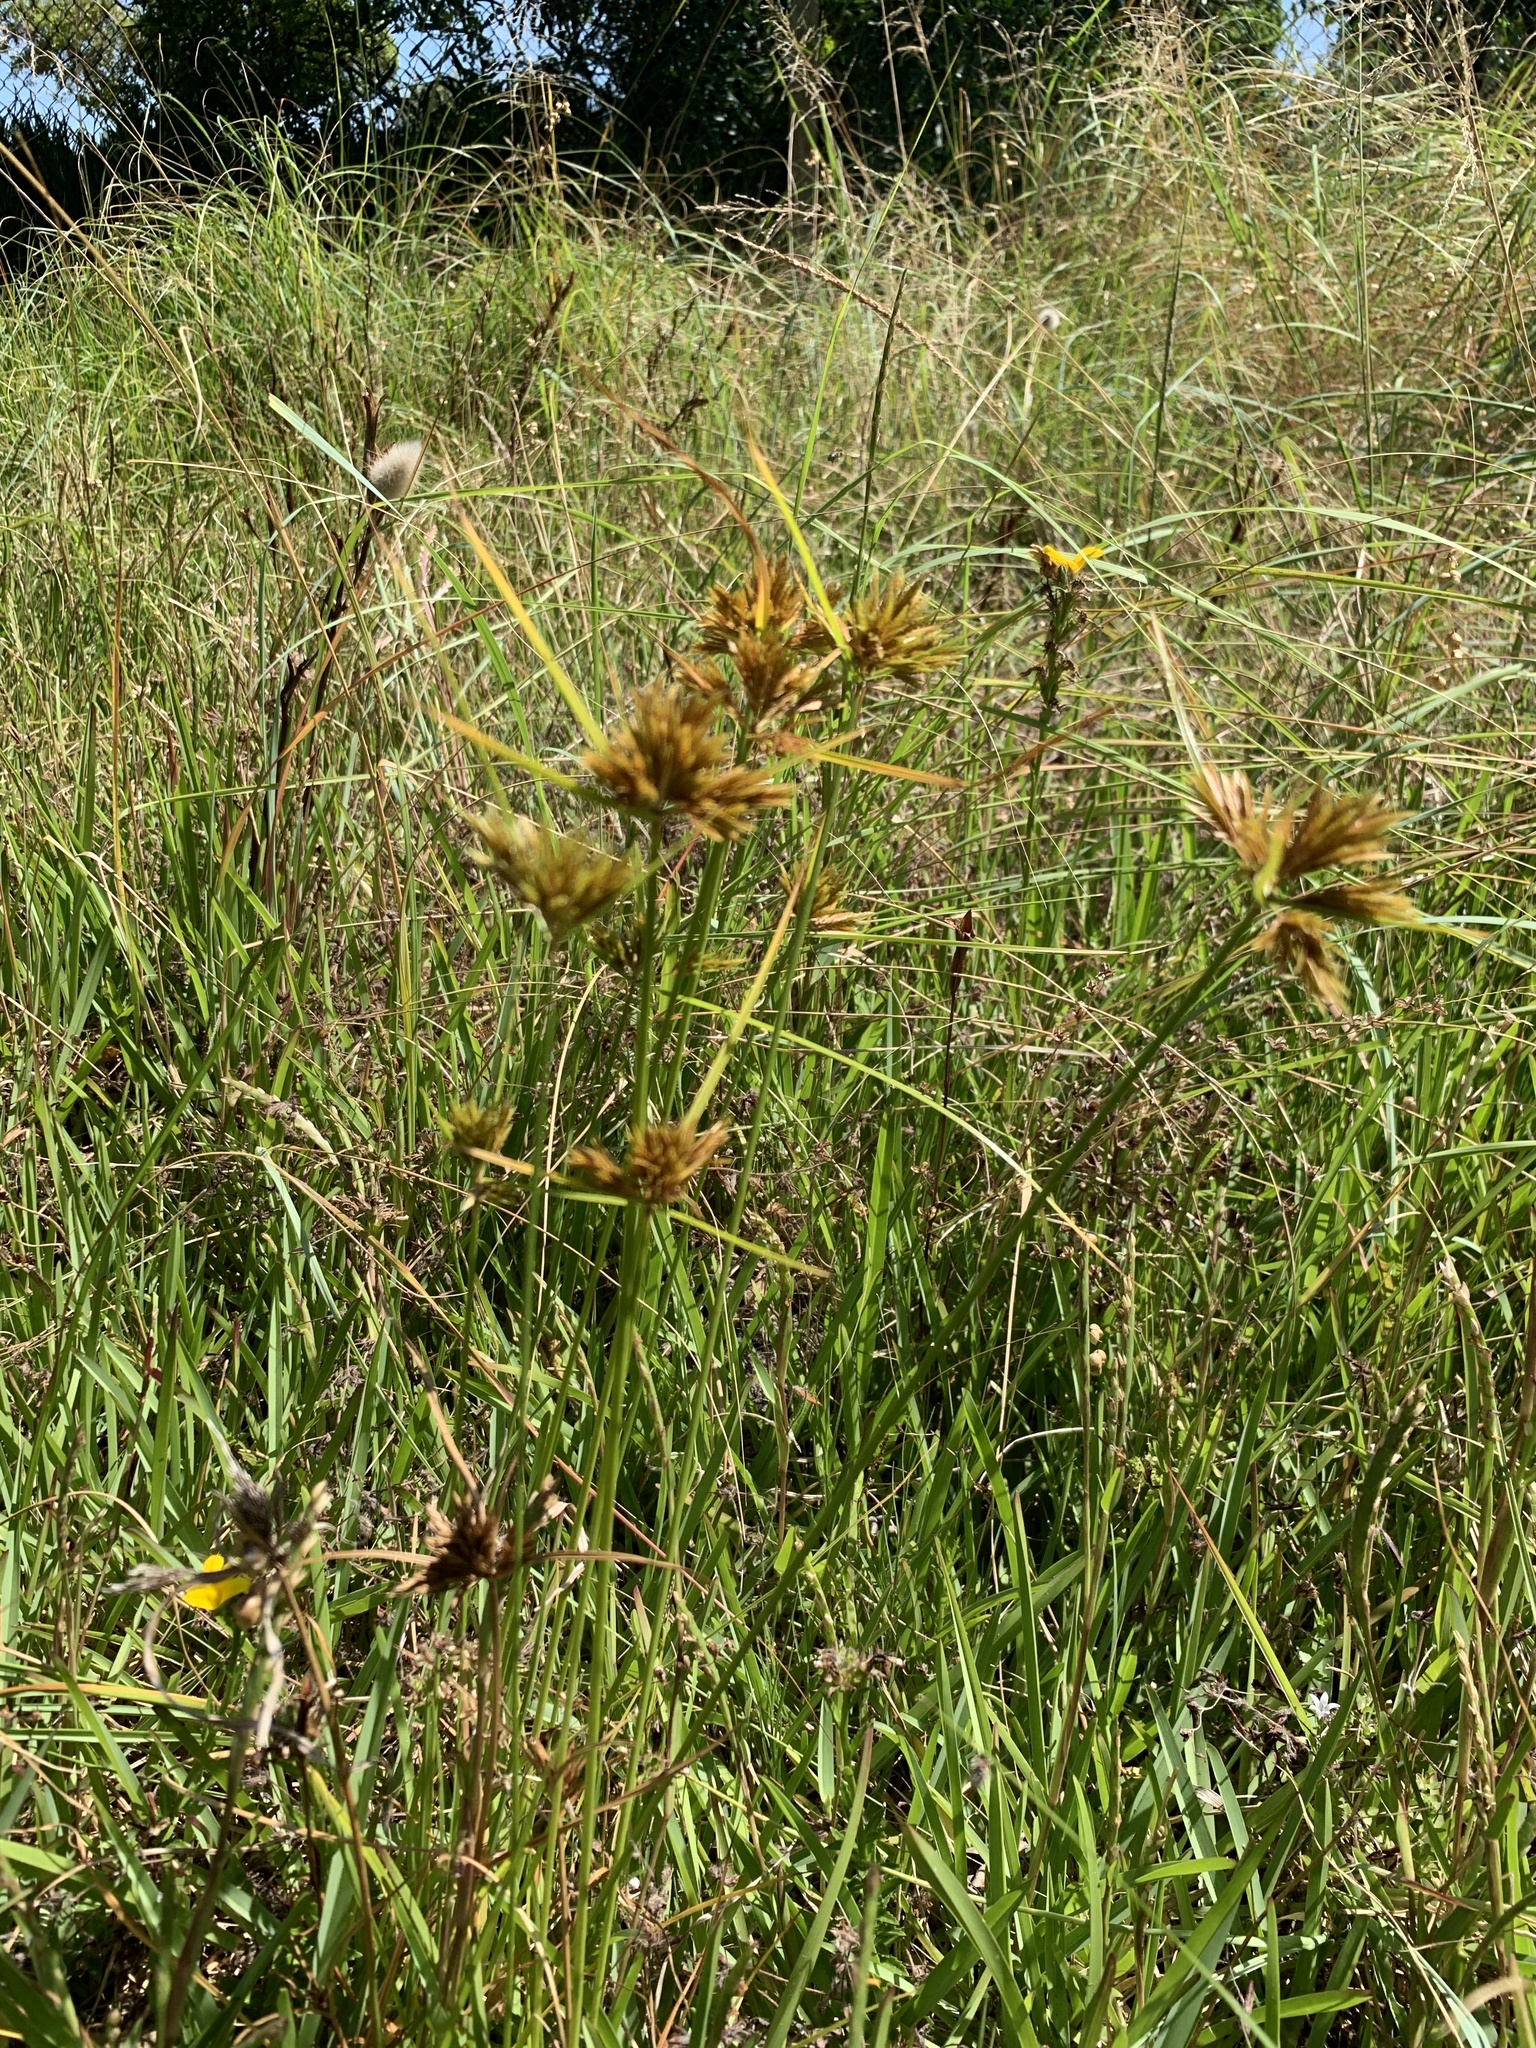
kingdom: Plantae
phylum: Tracheophyta
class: Liliopsida
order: Poales
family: Cyperaceae
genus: Cyperus
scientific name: Cyperus polystachyos
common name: Bunchy flat sedge
